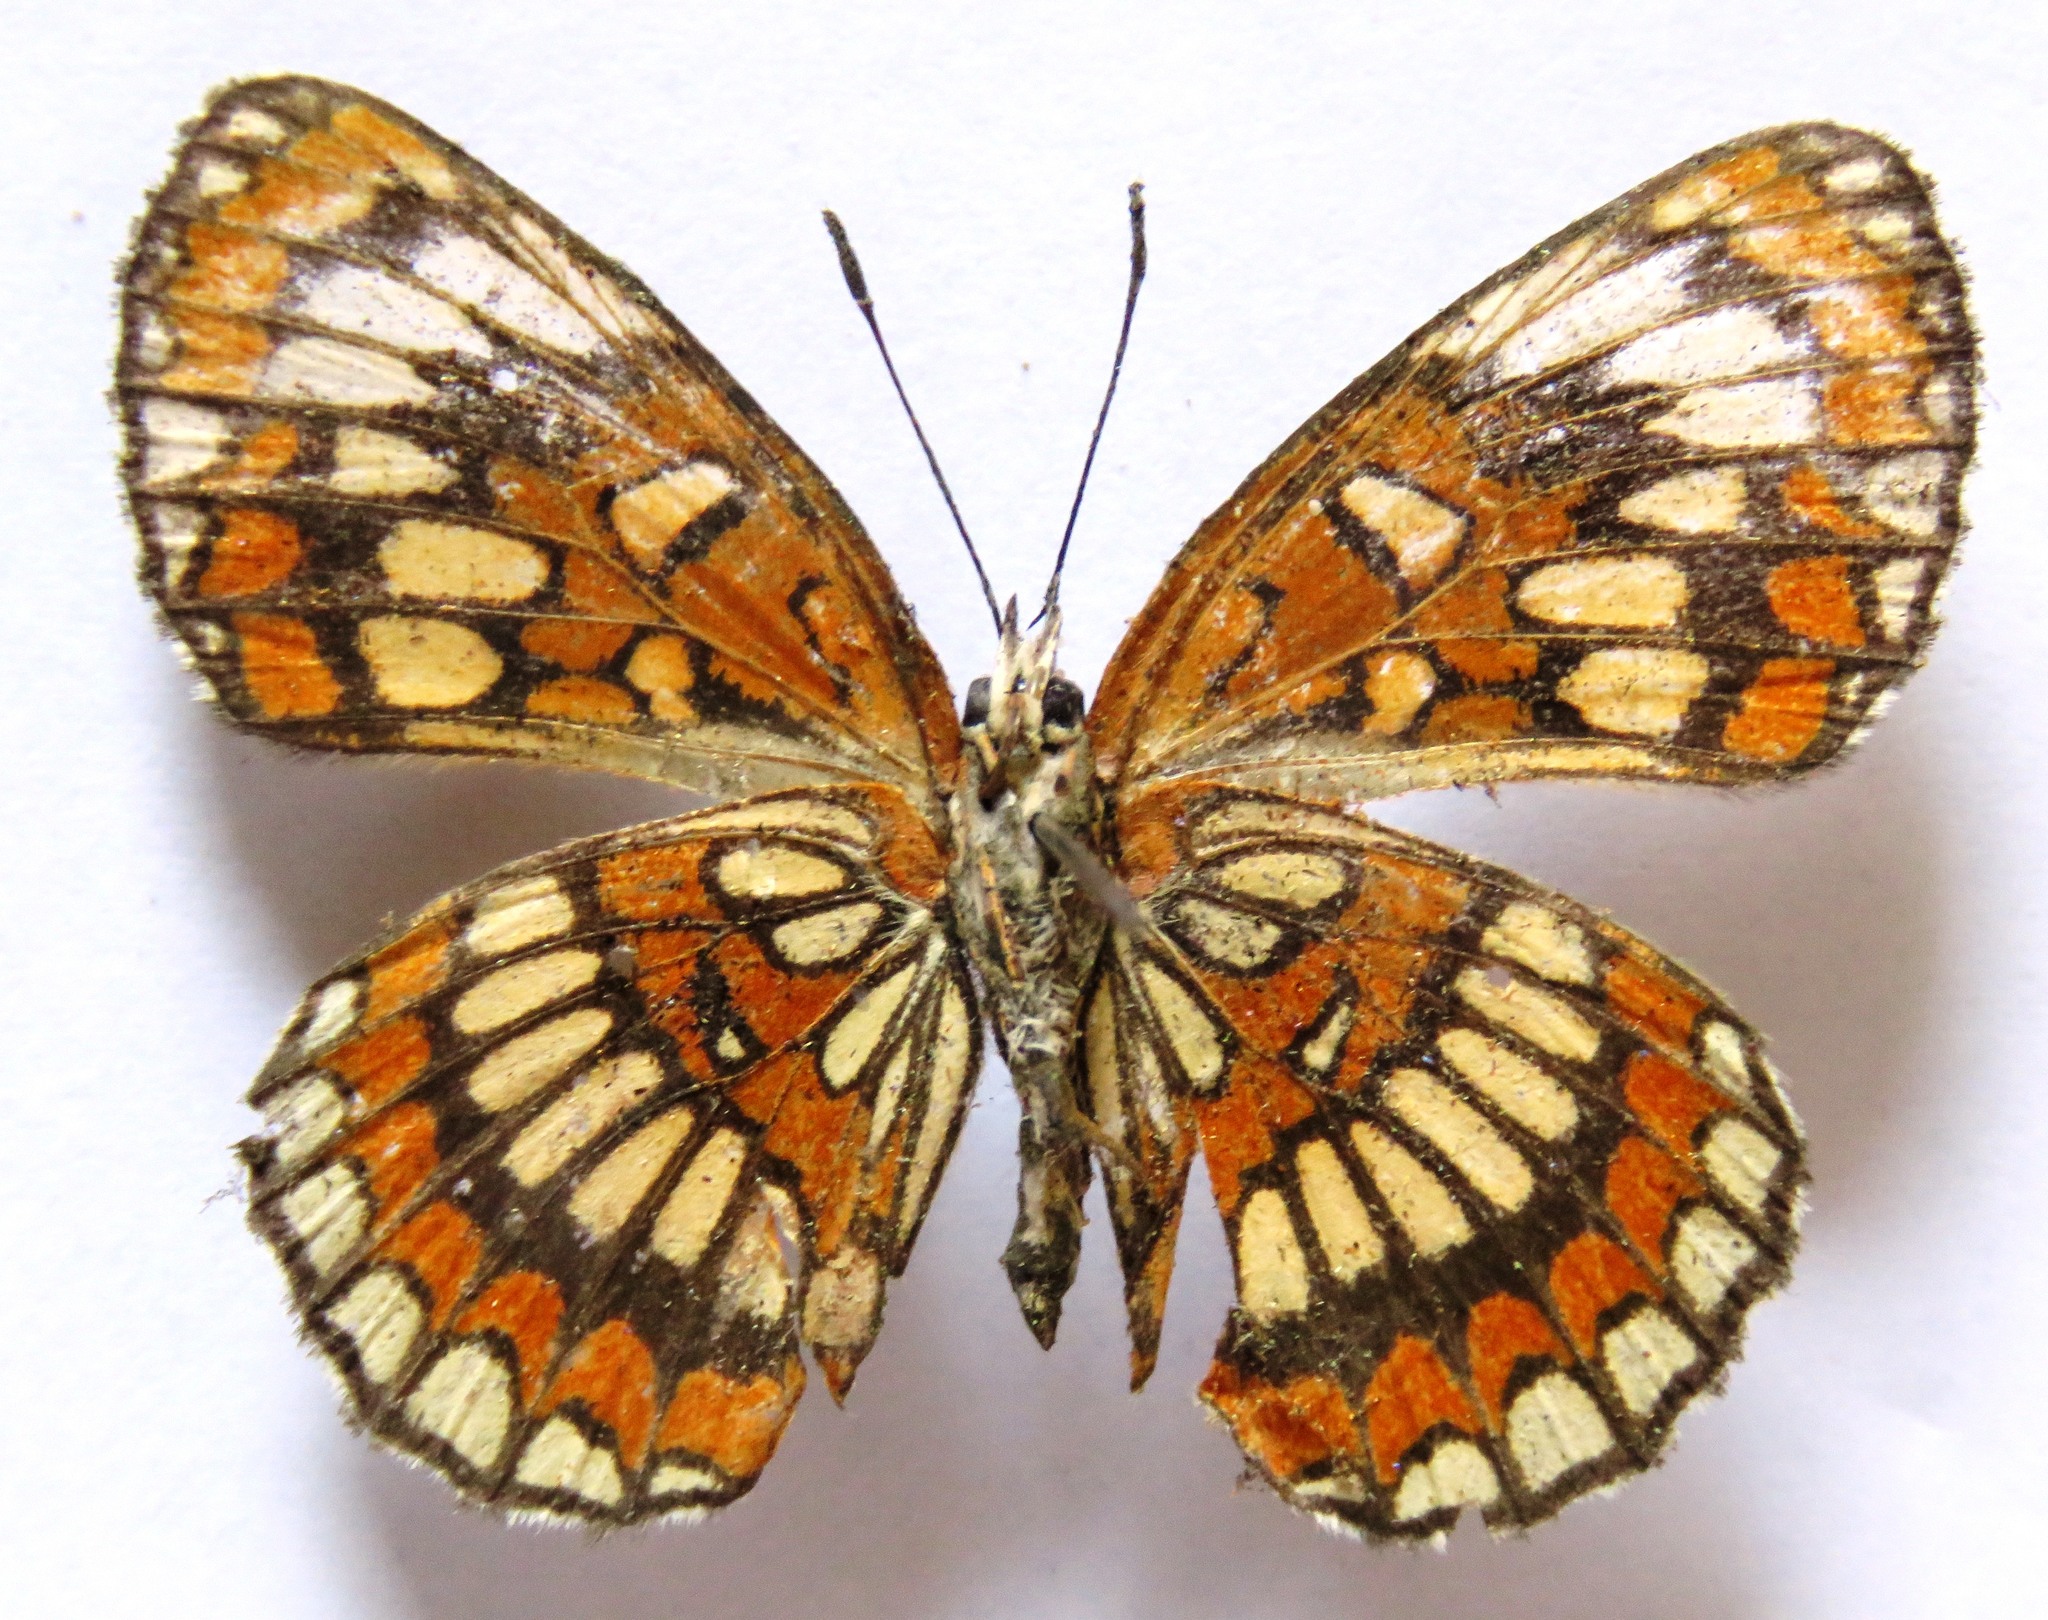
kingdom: Animalia
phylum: Arthropoda
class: Insecta
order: Lepidoptera
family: Nymphalidae
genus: Thessalia
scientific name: Thessalia theona
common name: Nymphalid moth
